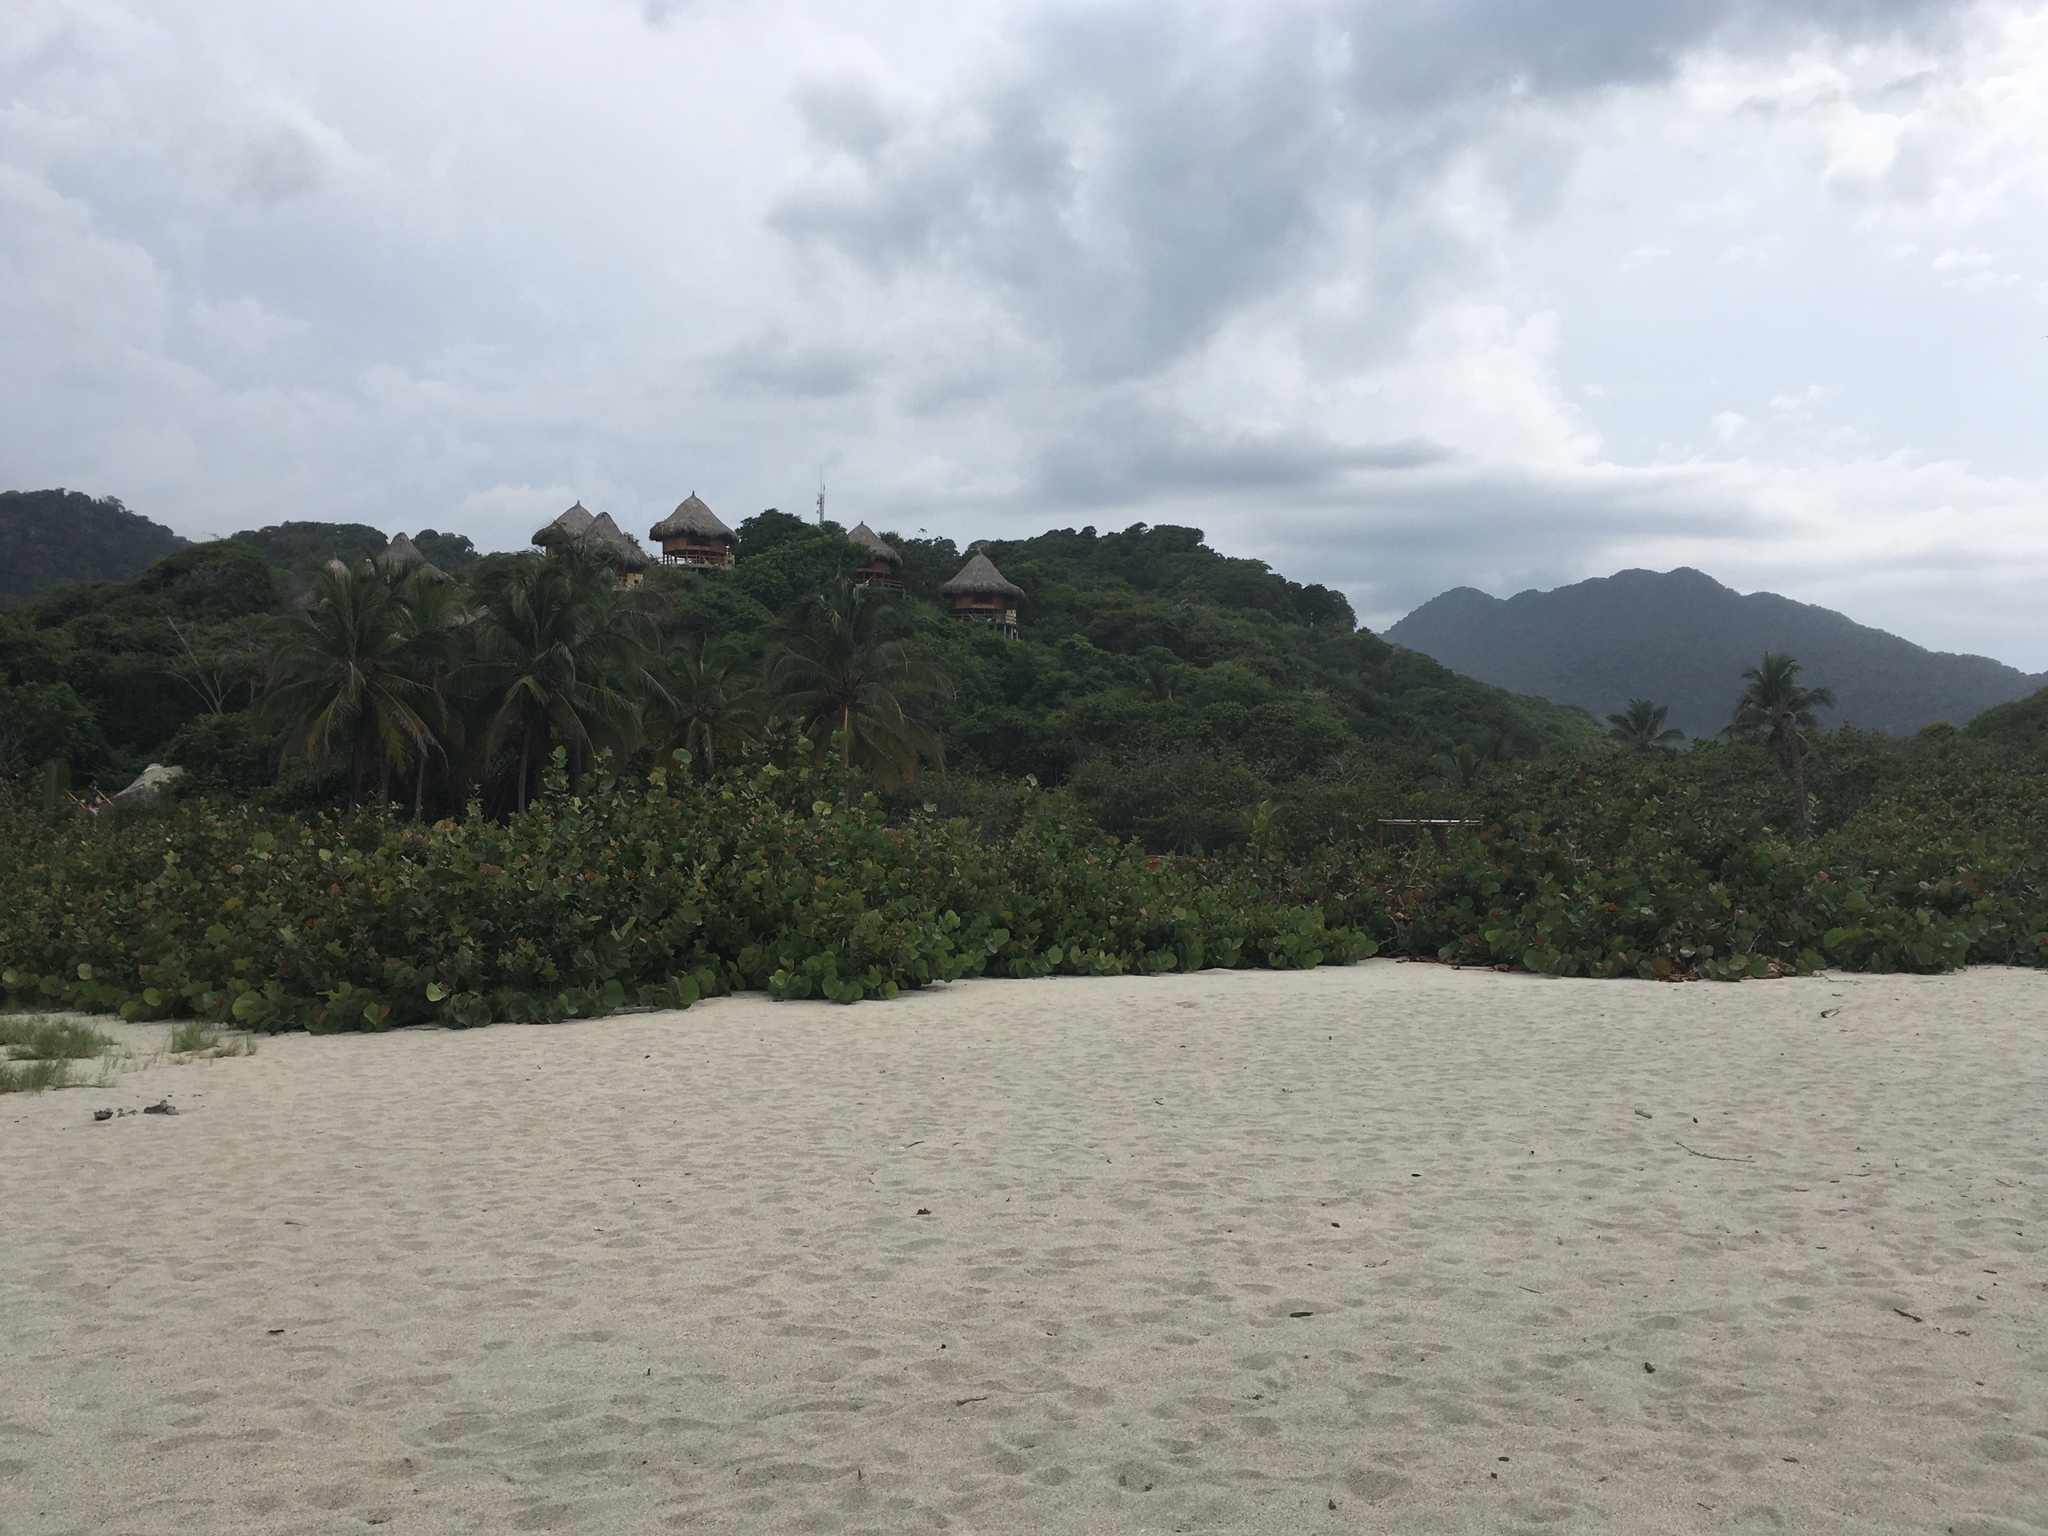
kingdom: Plantae
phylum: Tracheophyta
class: Magnoliopsida
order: Caryophyllales
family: Polygonaceae
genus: Coccoloba
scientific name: Coccoloba uvifera
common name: Seagrape
